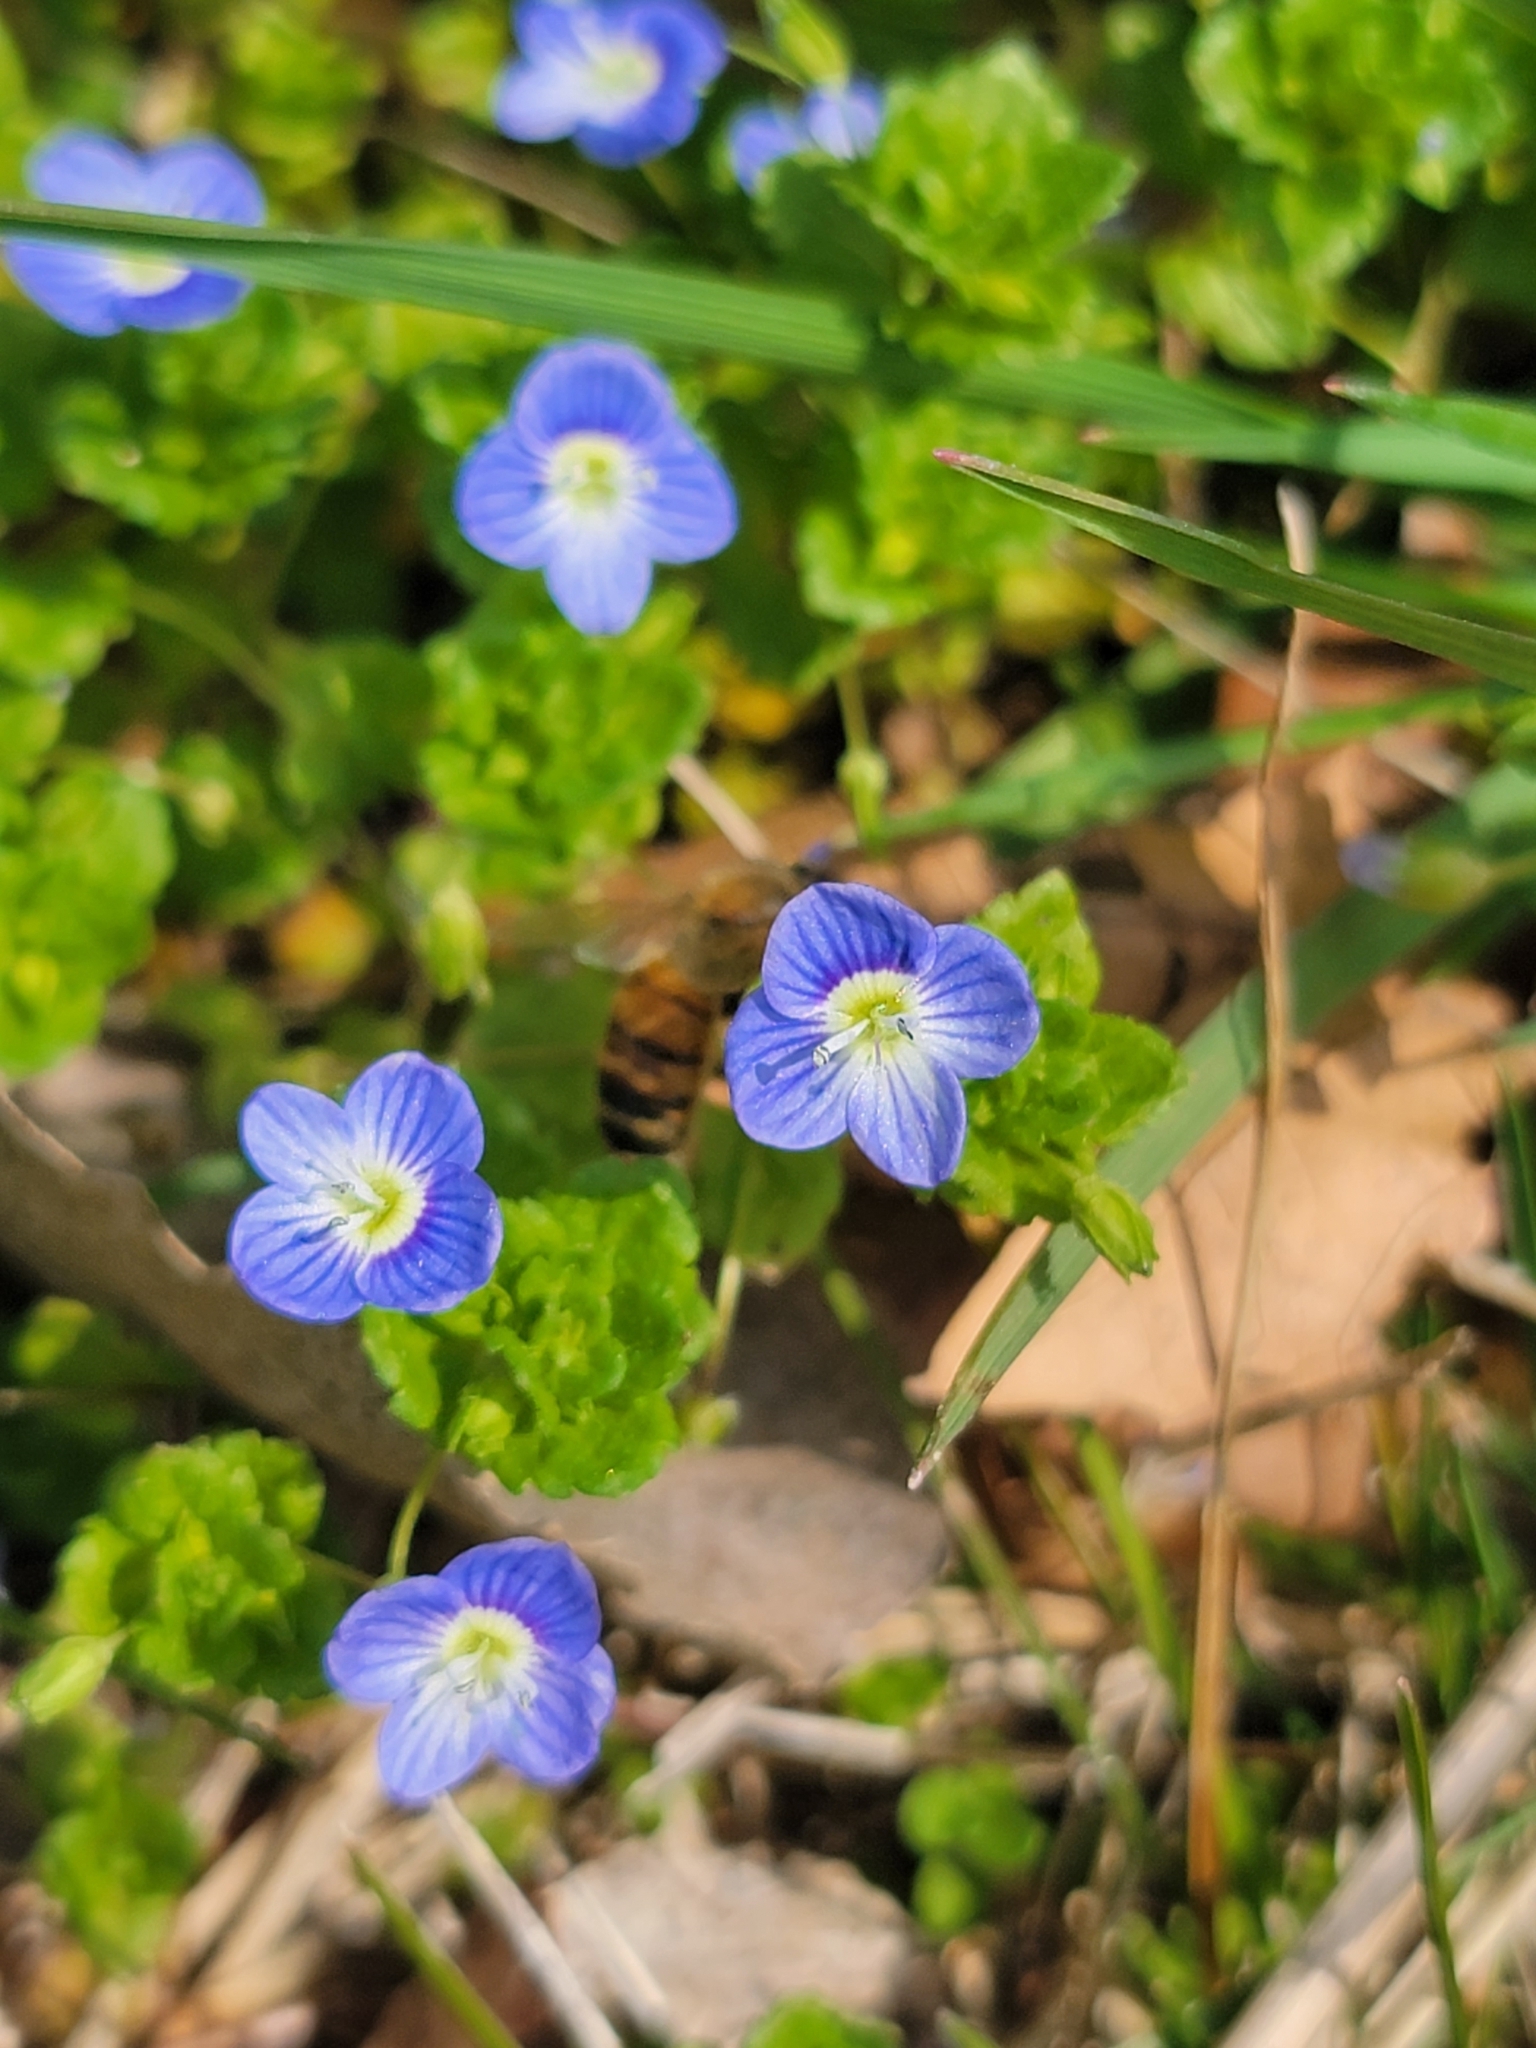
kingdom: Plantae
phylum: Tracheophyta
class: Magnoliopsida
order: Lamiales
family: Plantaginaceae
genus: Veronica
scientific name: Veronica persica
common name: Common field-speedwell
